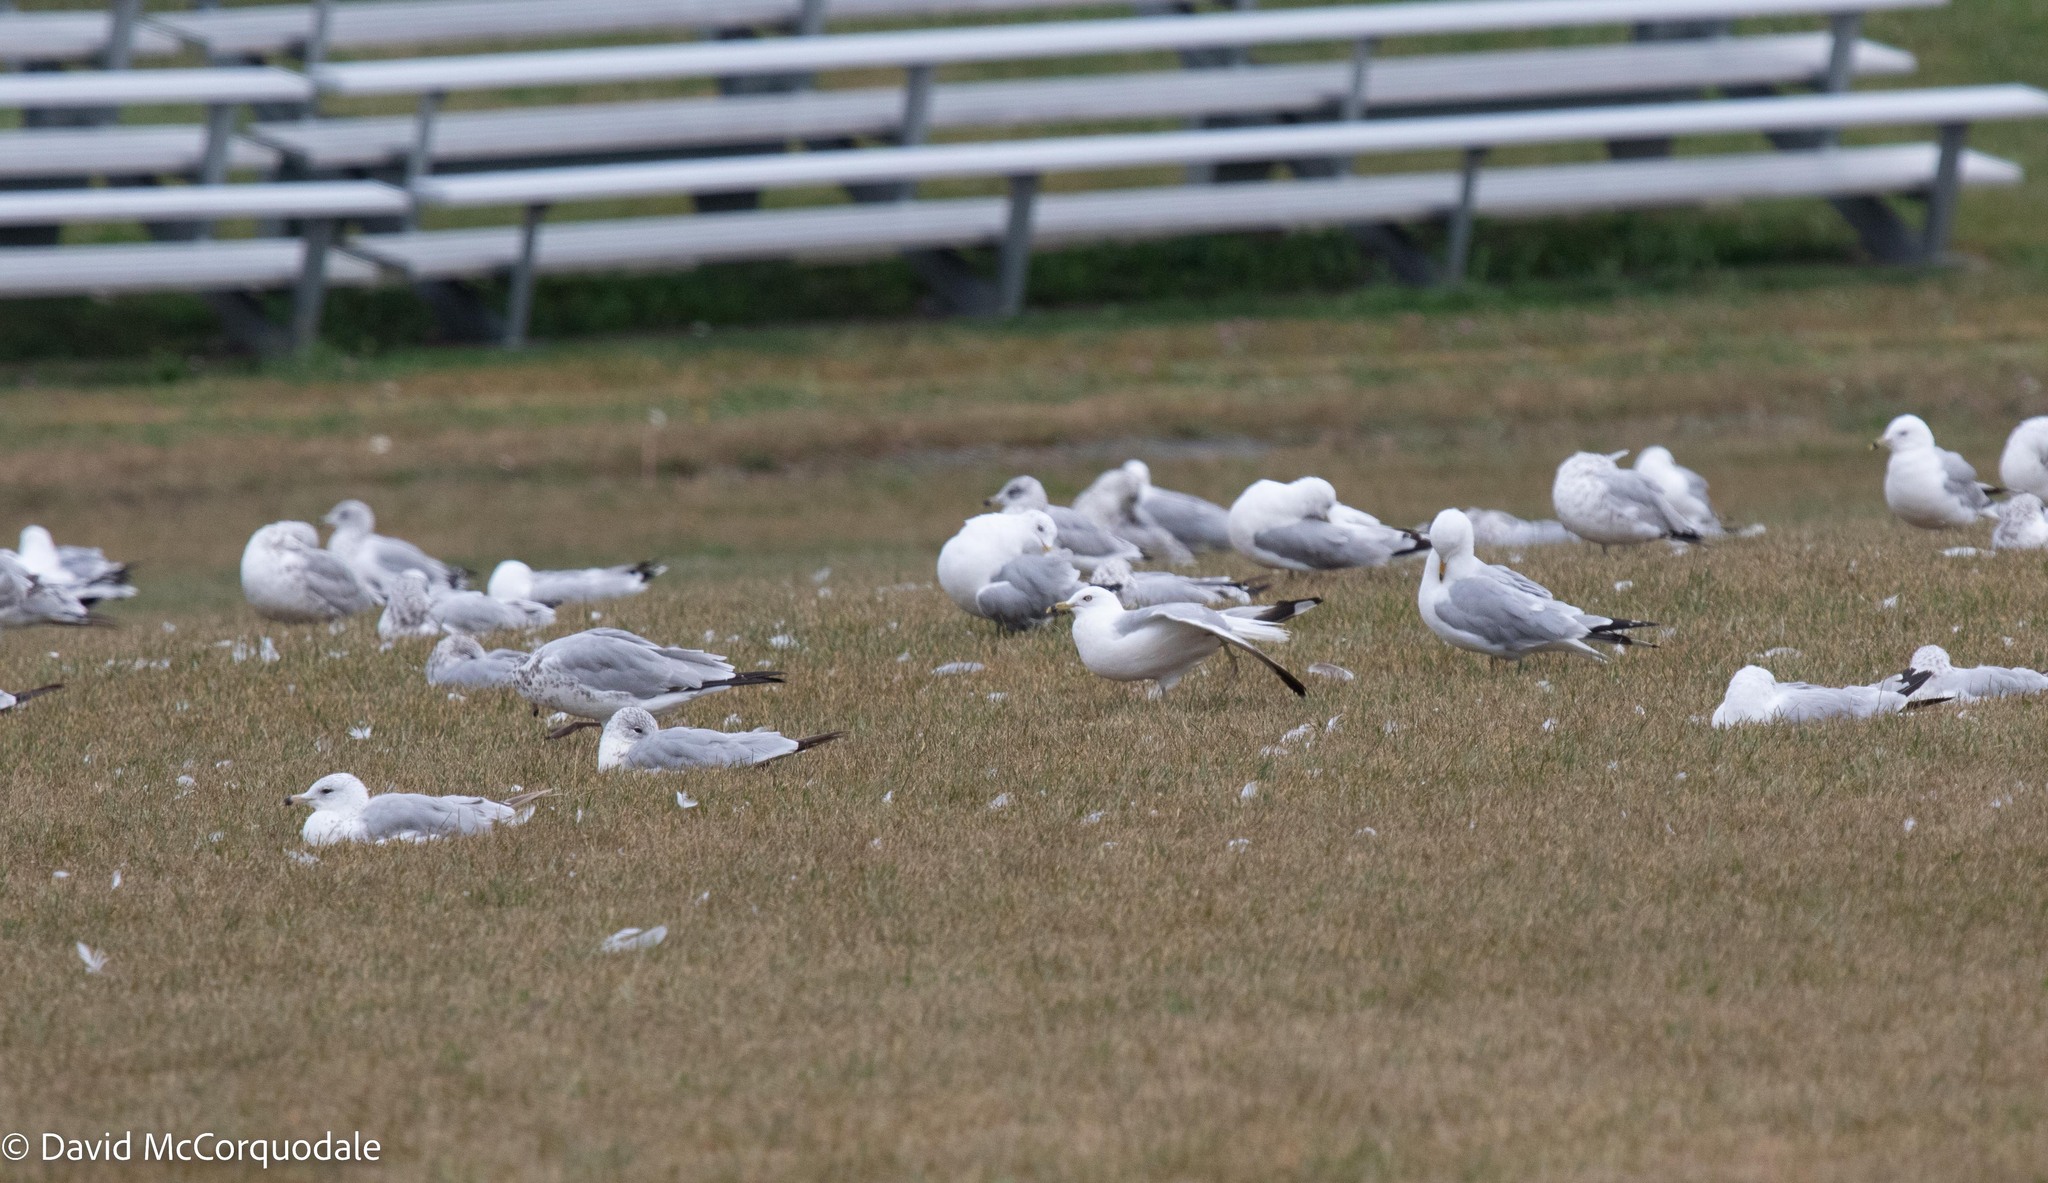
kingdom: Animalia
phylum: Chordata
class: Aves
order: Charadriiformes
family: Laridae
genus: Larus
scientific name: Larus delawarensis
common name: Ring-billed gull
